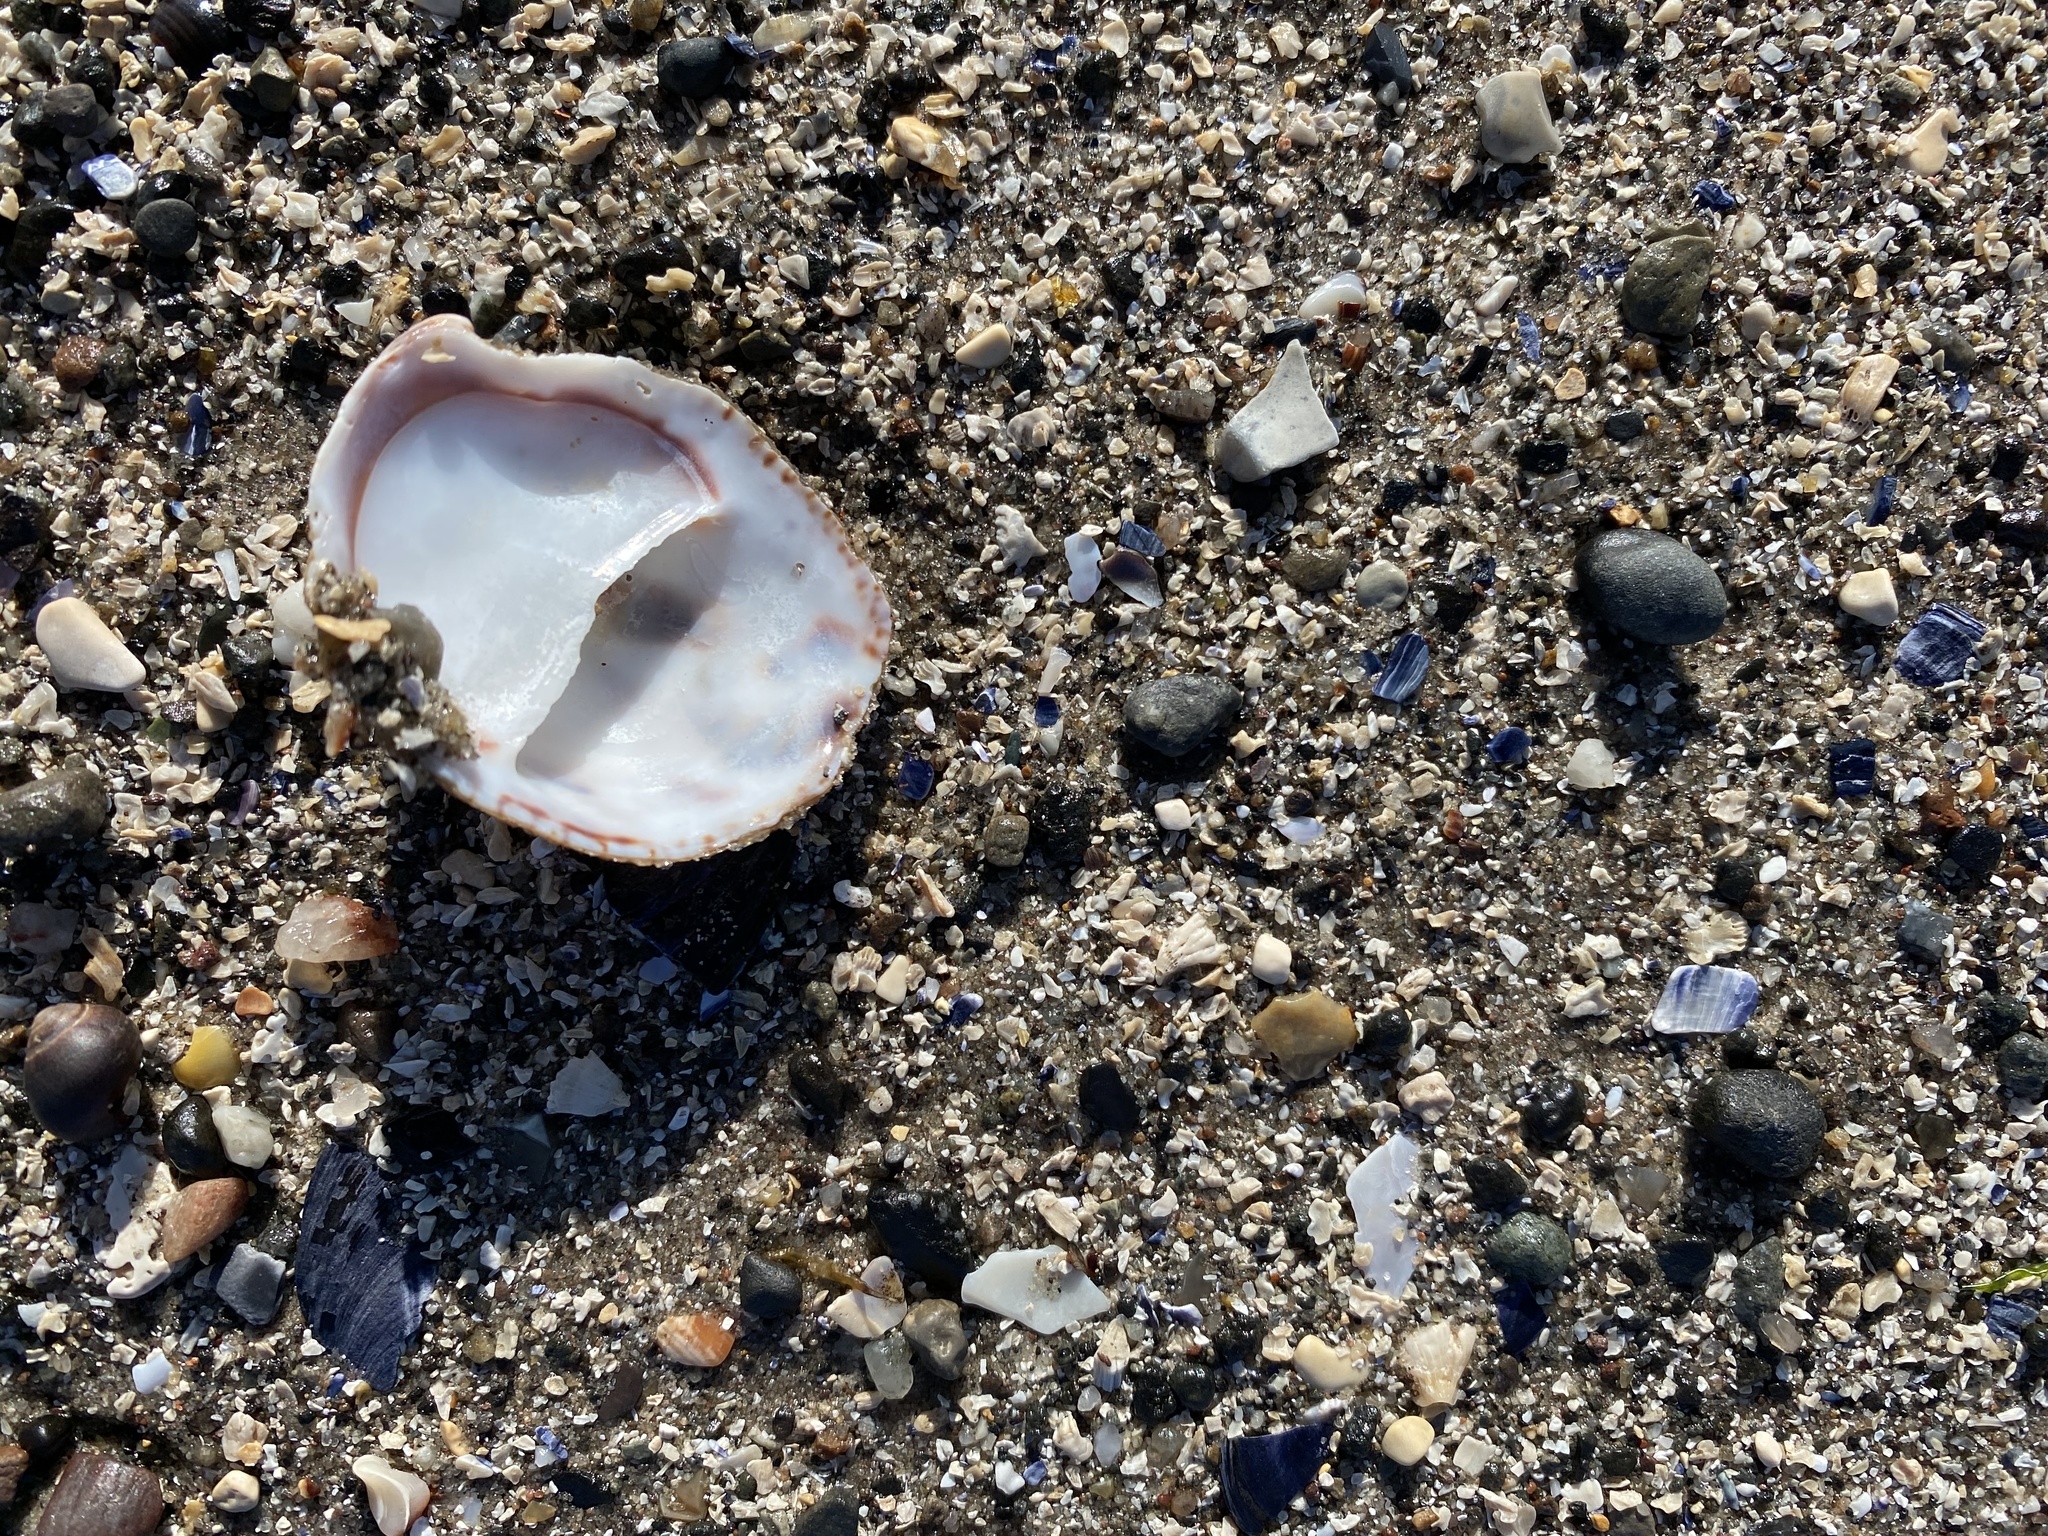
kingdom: Animalia
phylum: Mollusca
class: Gastropoda
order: Littorinimorpha
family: Calyptraeidae
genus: Crepidula
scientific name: Crepidula fornicata
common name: Slipper limpet
